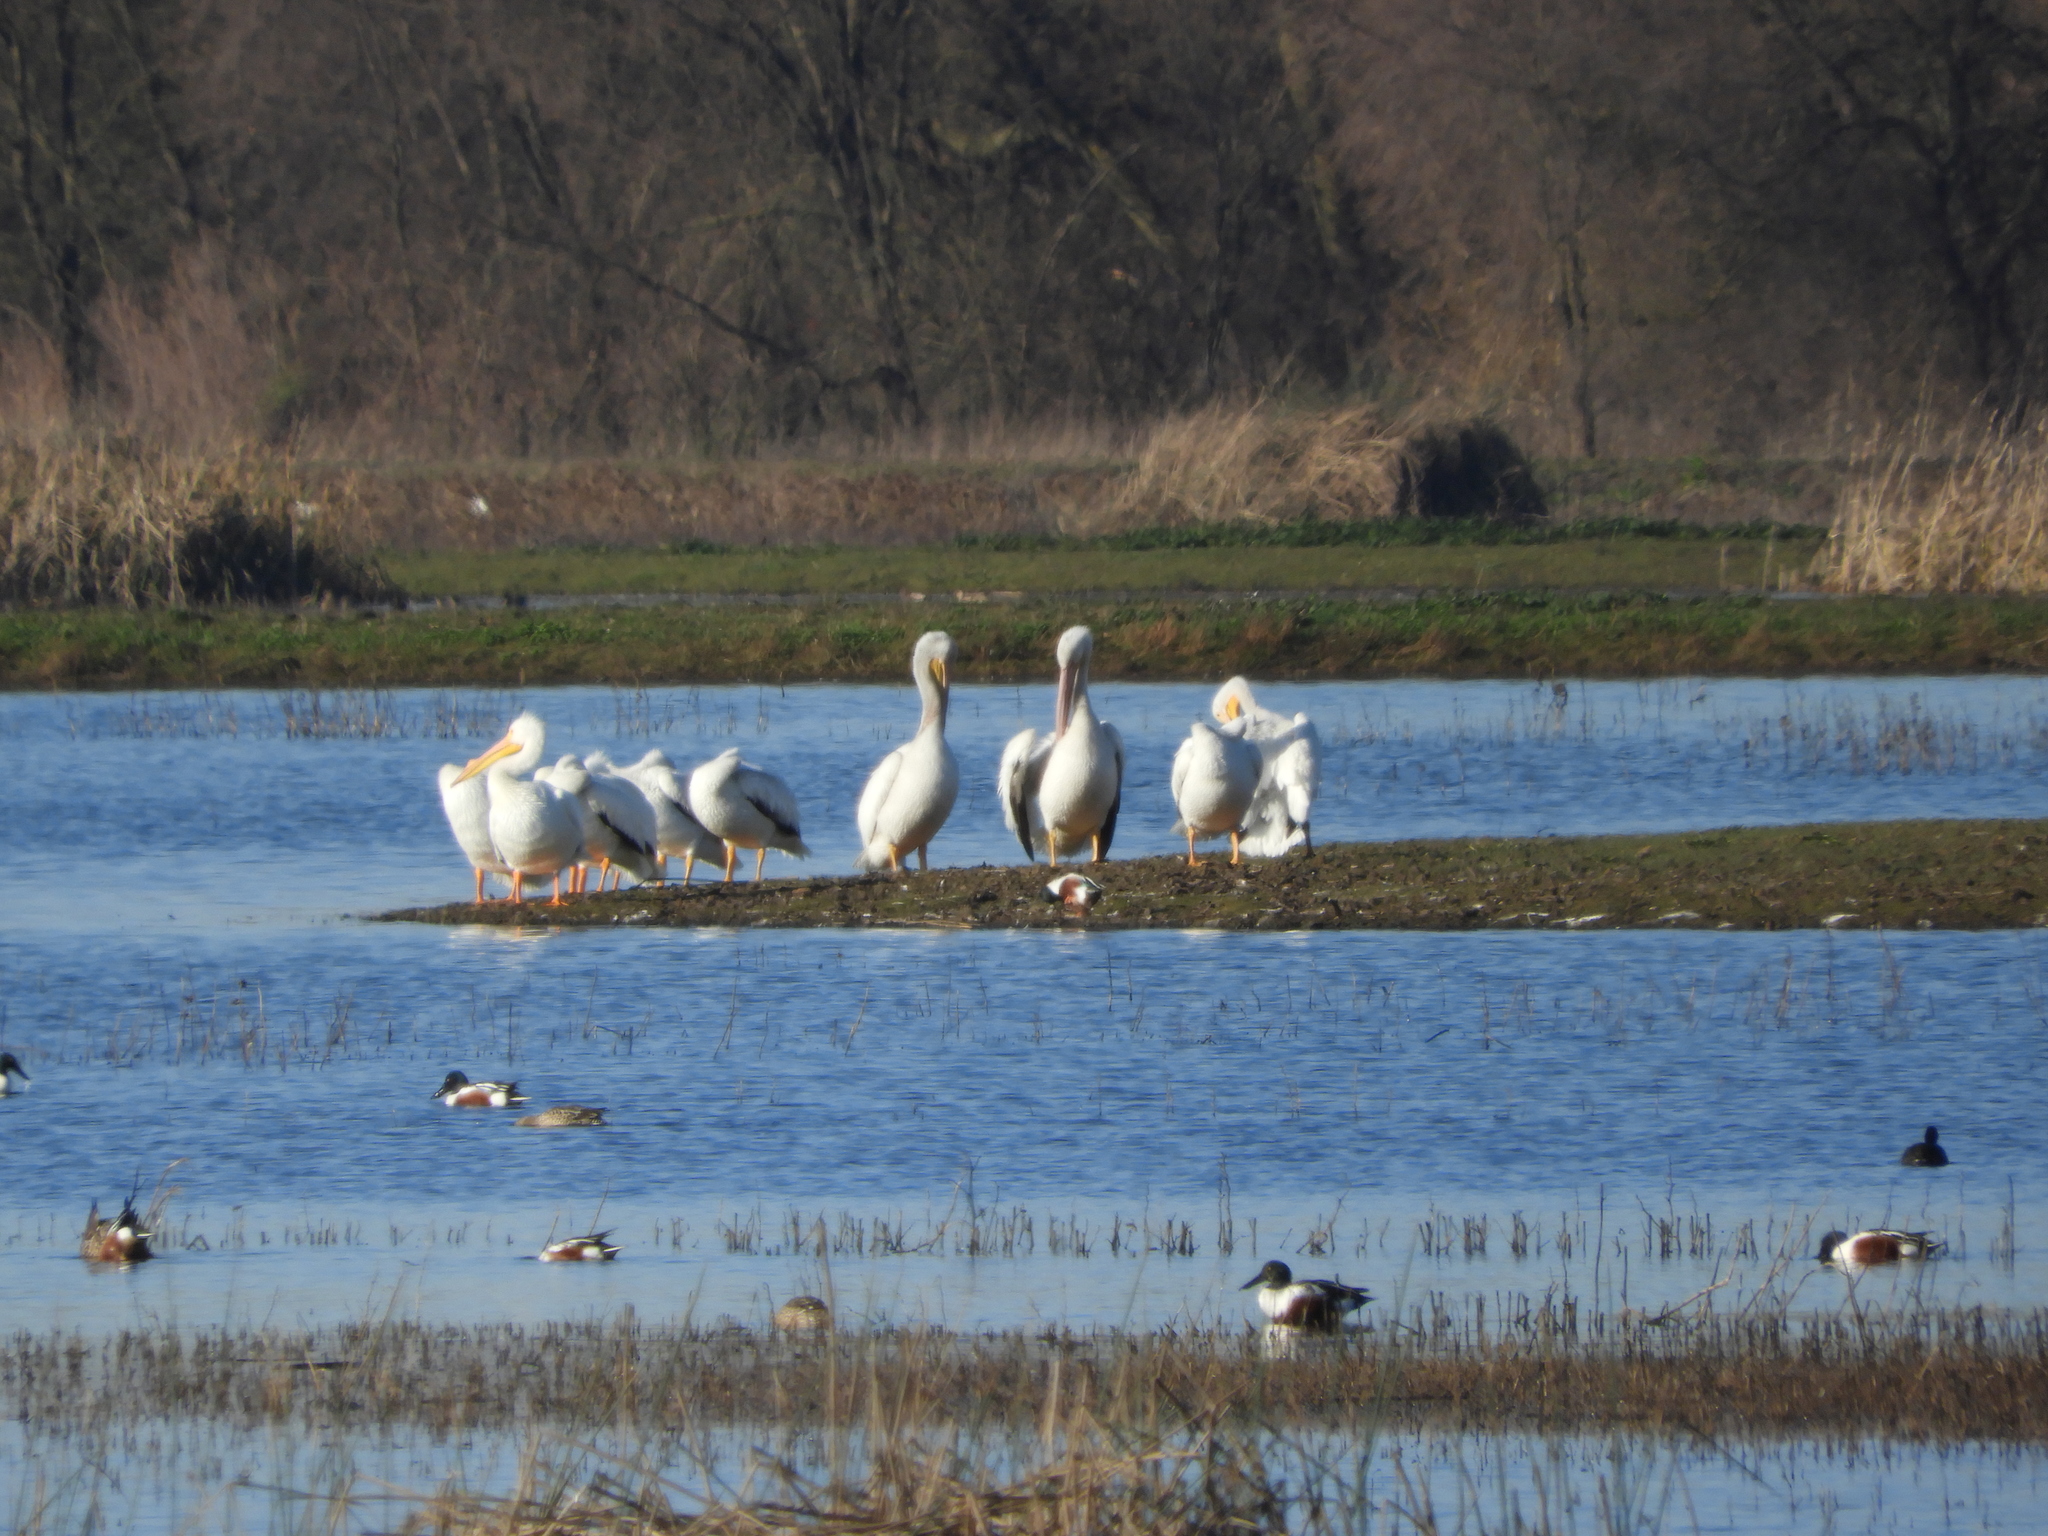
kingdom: Animalia
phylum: Chordata
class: Aves
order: Pelecaniformes
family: Pelecanidae
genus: Pelecanus
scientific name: Pelecanus erythrorhynchos
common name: American white pelican
